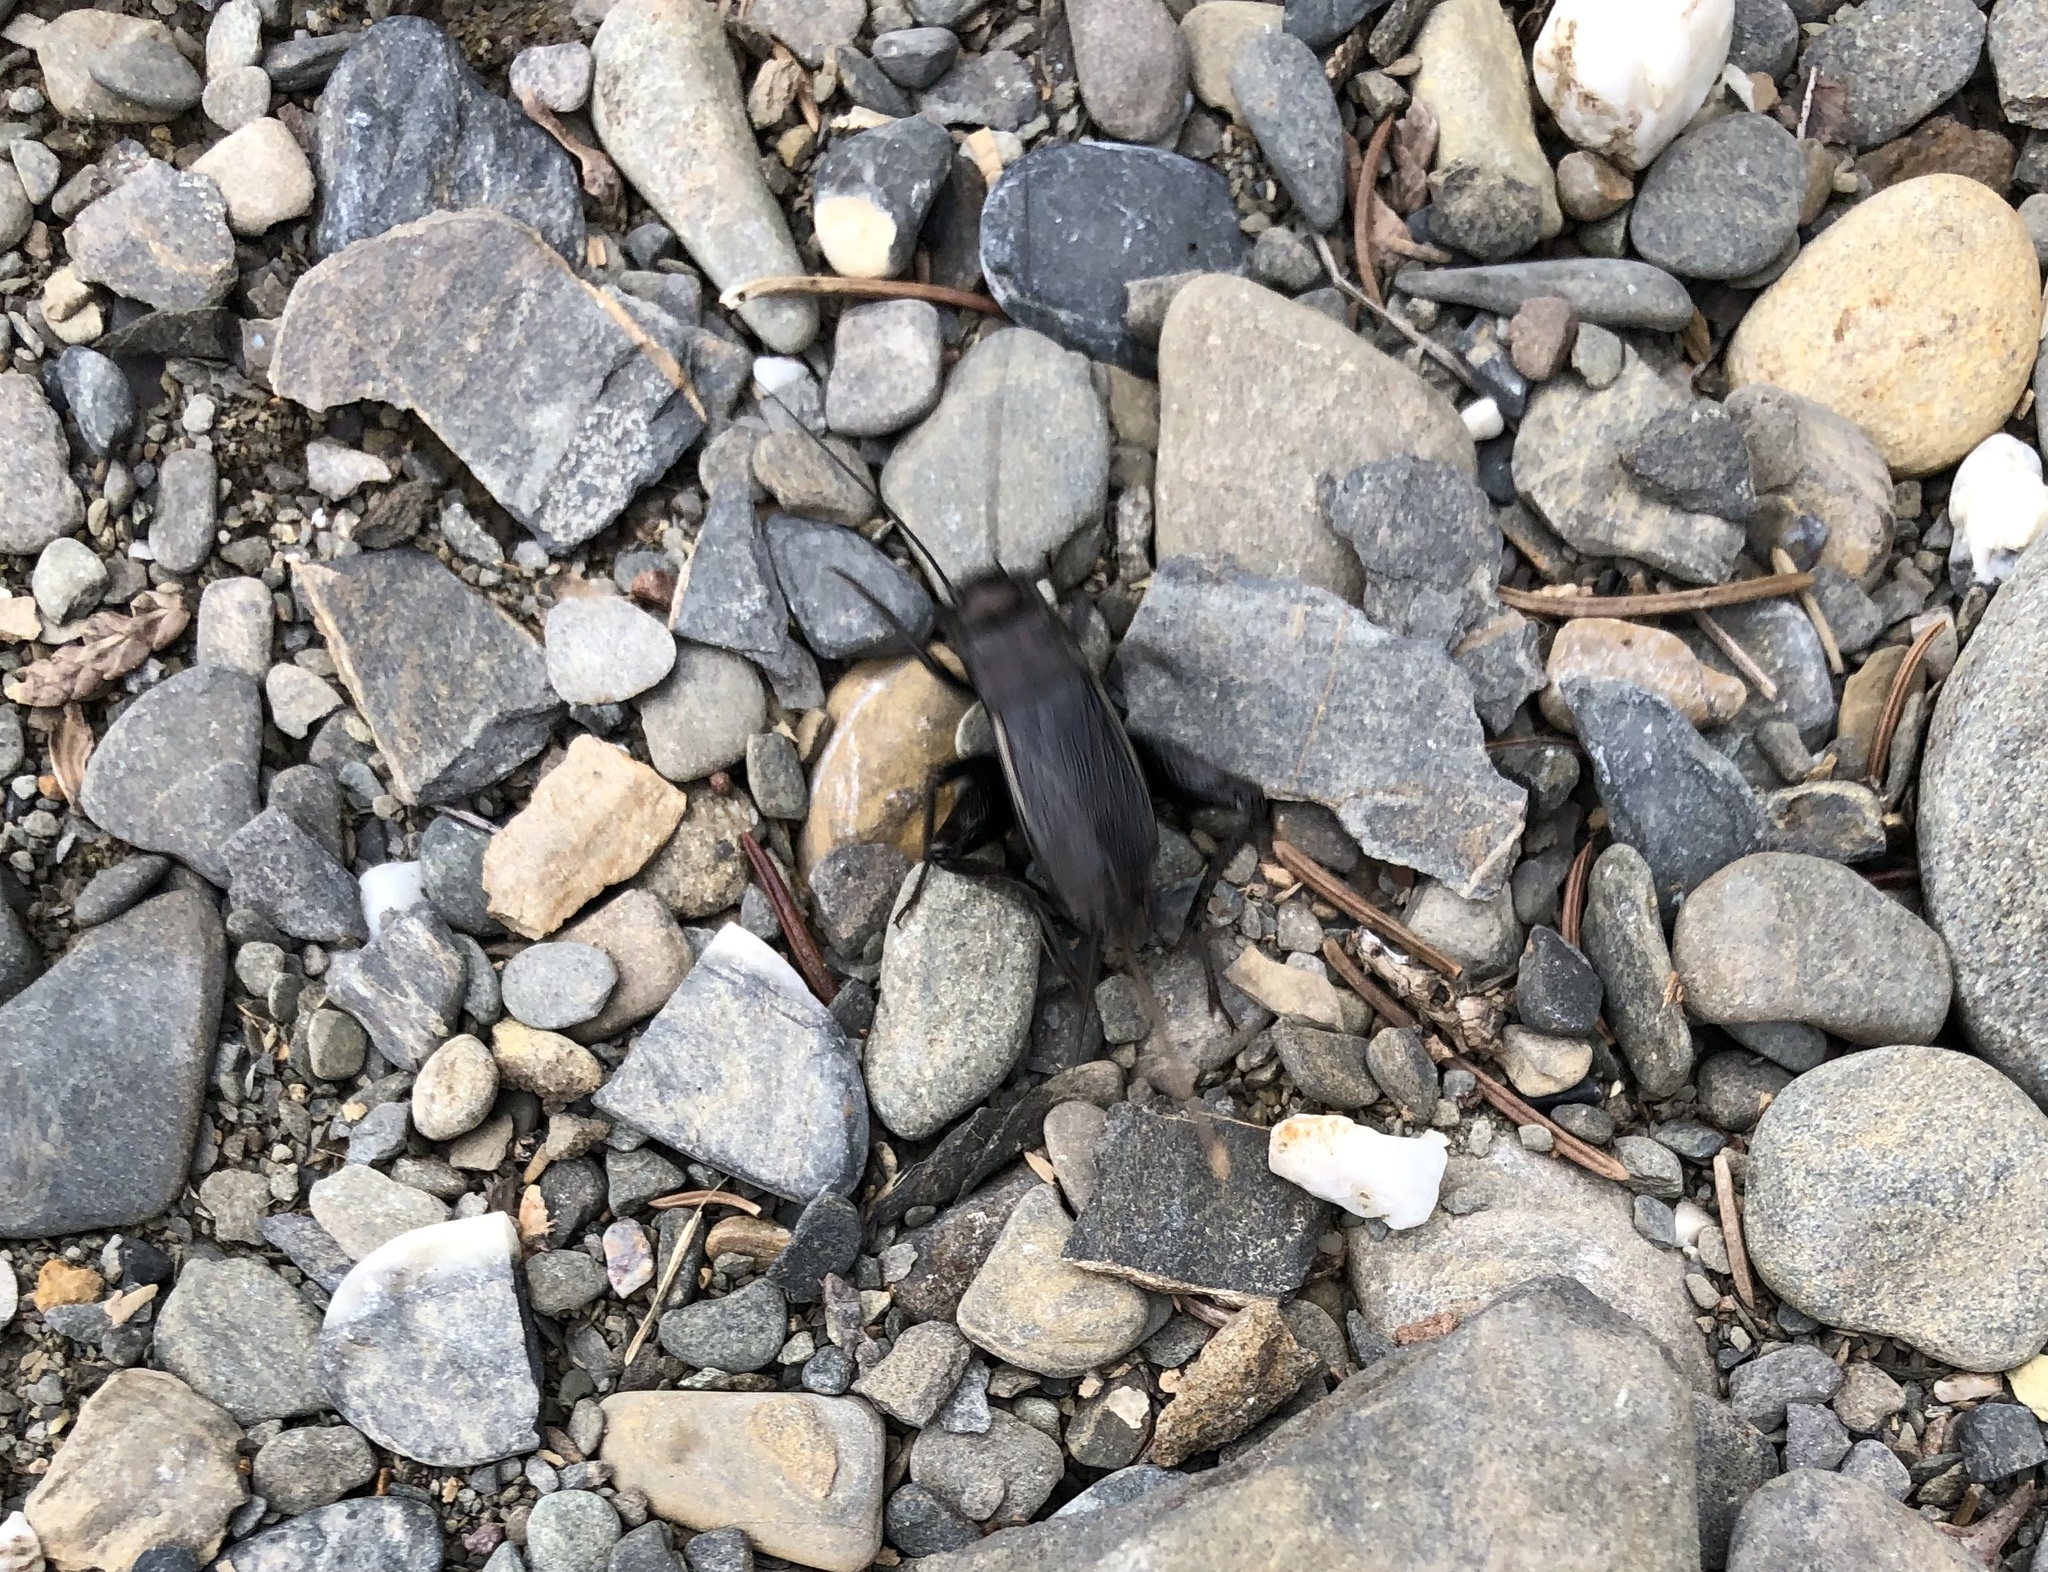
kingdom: Animalia
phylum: Arthropoda
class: Insecta
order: Orthoptera
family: Gryllidae
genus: Gryllus
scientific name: Gryllus pennsylvanicus
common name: Fall field cricket
